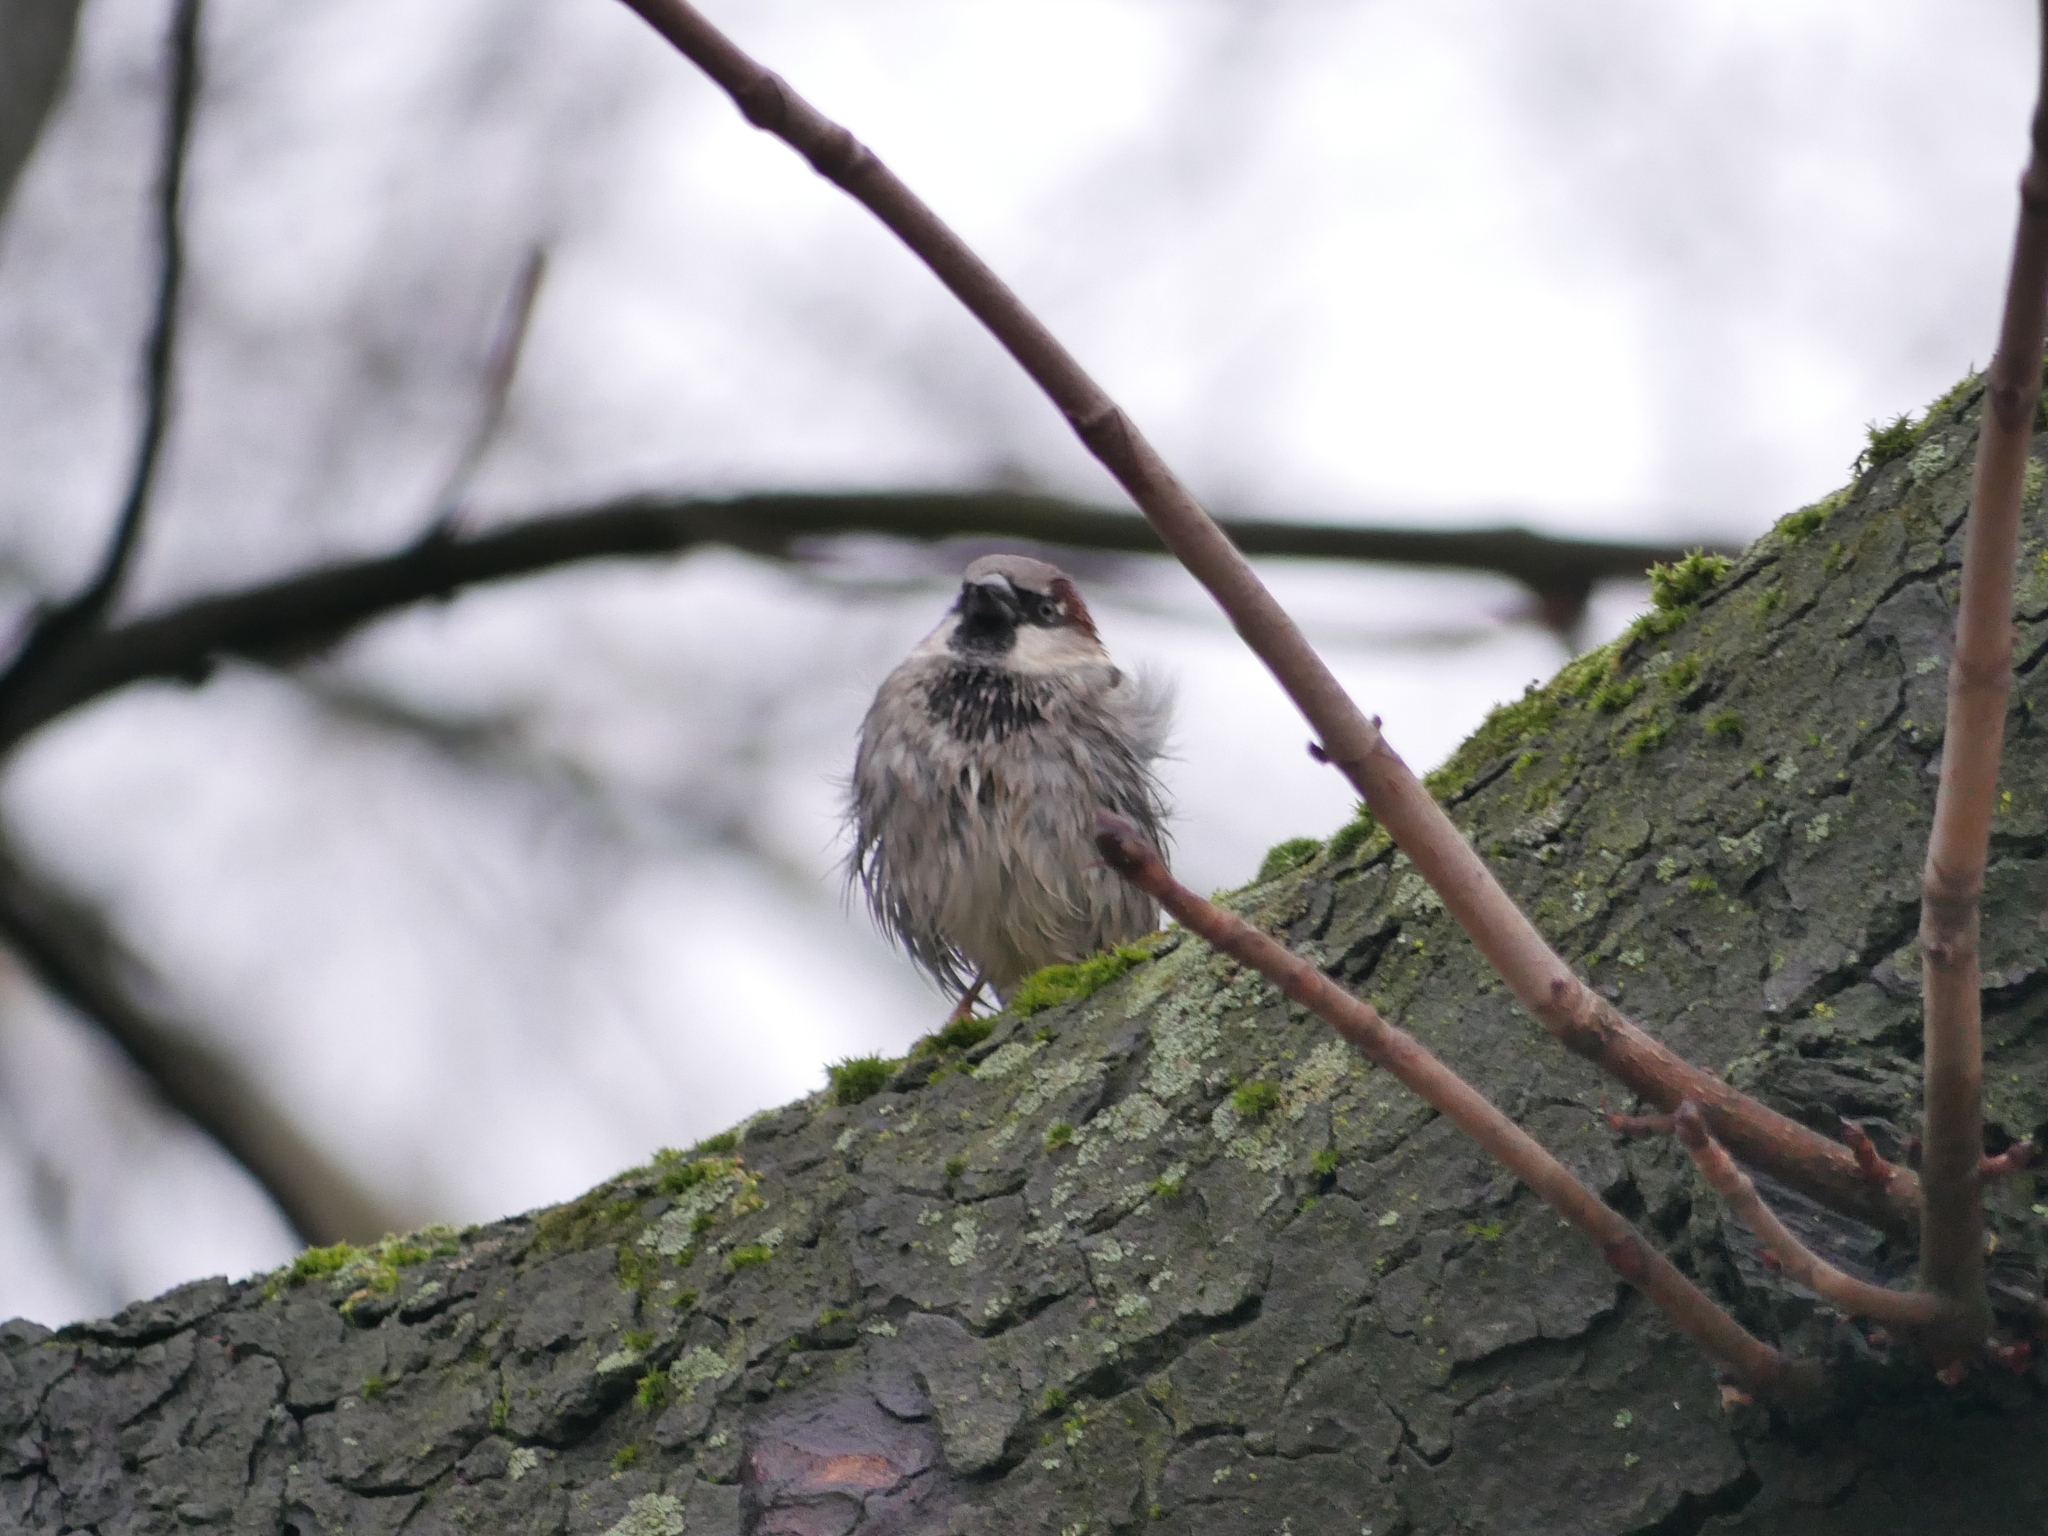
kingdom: Animalia
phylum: Chordata
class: Aves
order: Passeriformes
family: Passeridae
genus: Passer
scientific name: Passer domesticus
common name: House sparrow
